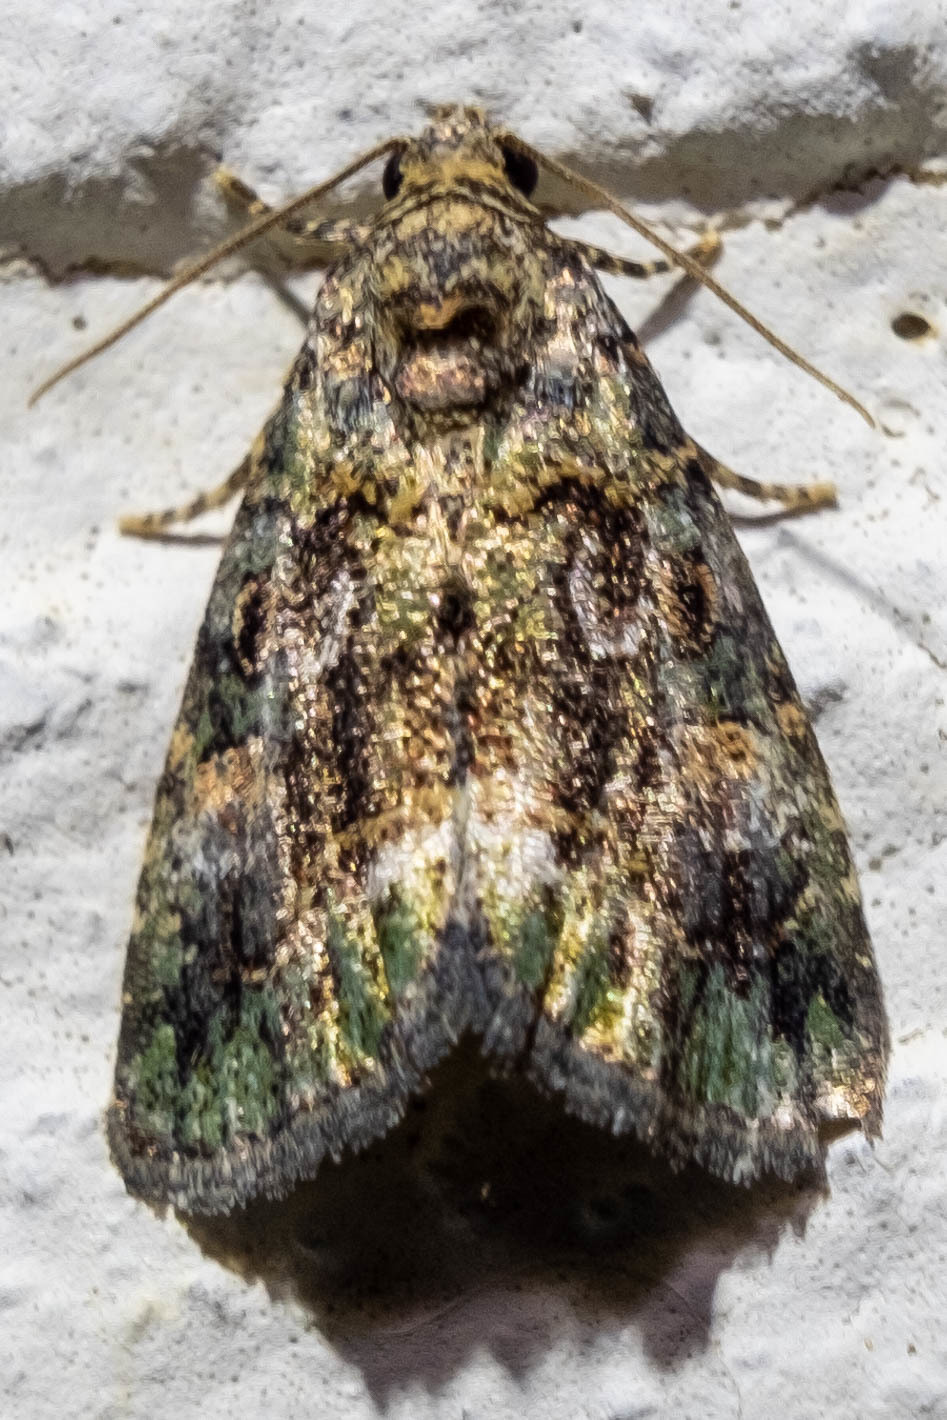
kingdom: Animalia
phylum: Arthropoda
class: Insecta
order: Lepidoptera
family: Noctuidae
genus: Lithacodia
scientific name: Lithacodia musta
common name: Small mossy glyph
